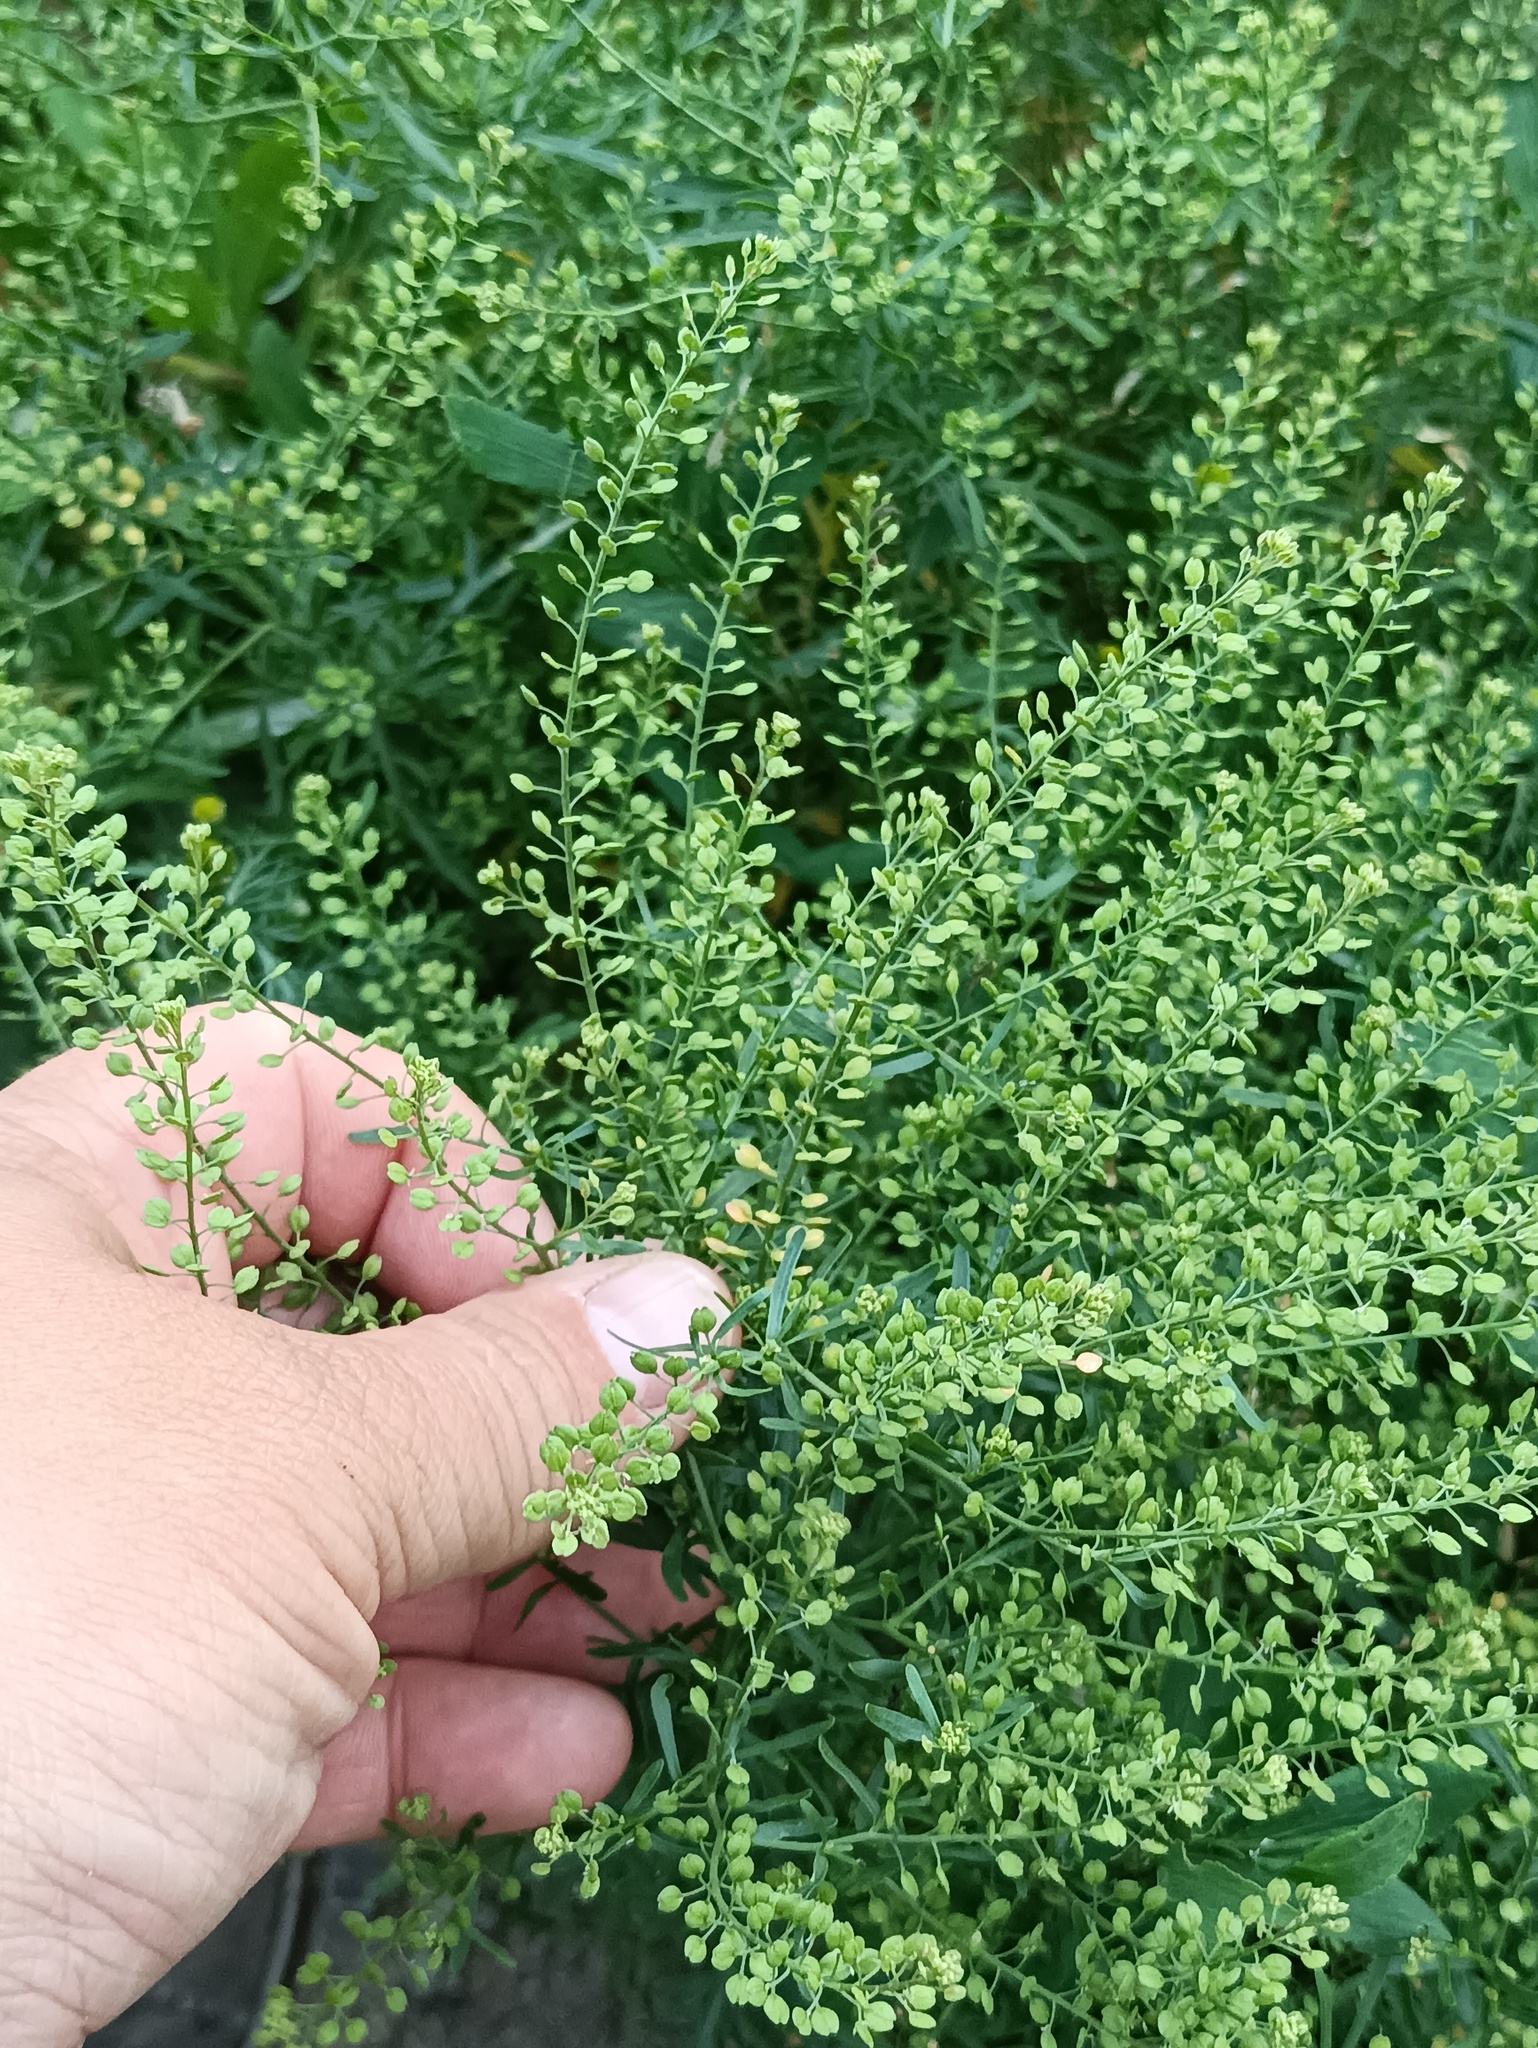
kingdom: Plantae
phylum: Tracheophyta
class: Magnoliopsida
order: Brassicales
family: Brassicaceae
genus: Lepidium
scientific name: Lepidium ruderale
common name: Narrow-leaved pepperwort
